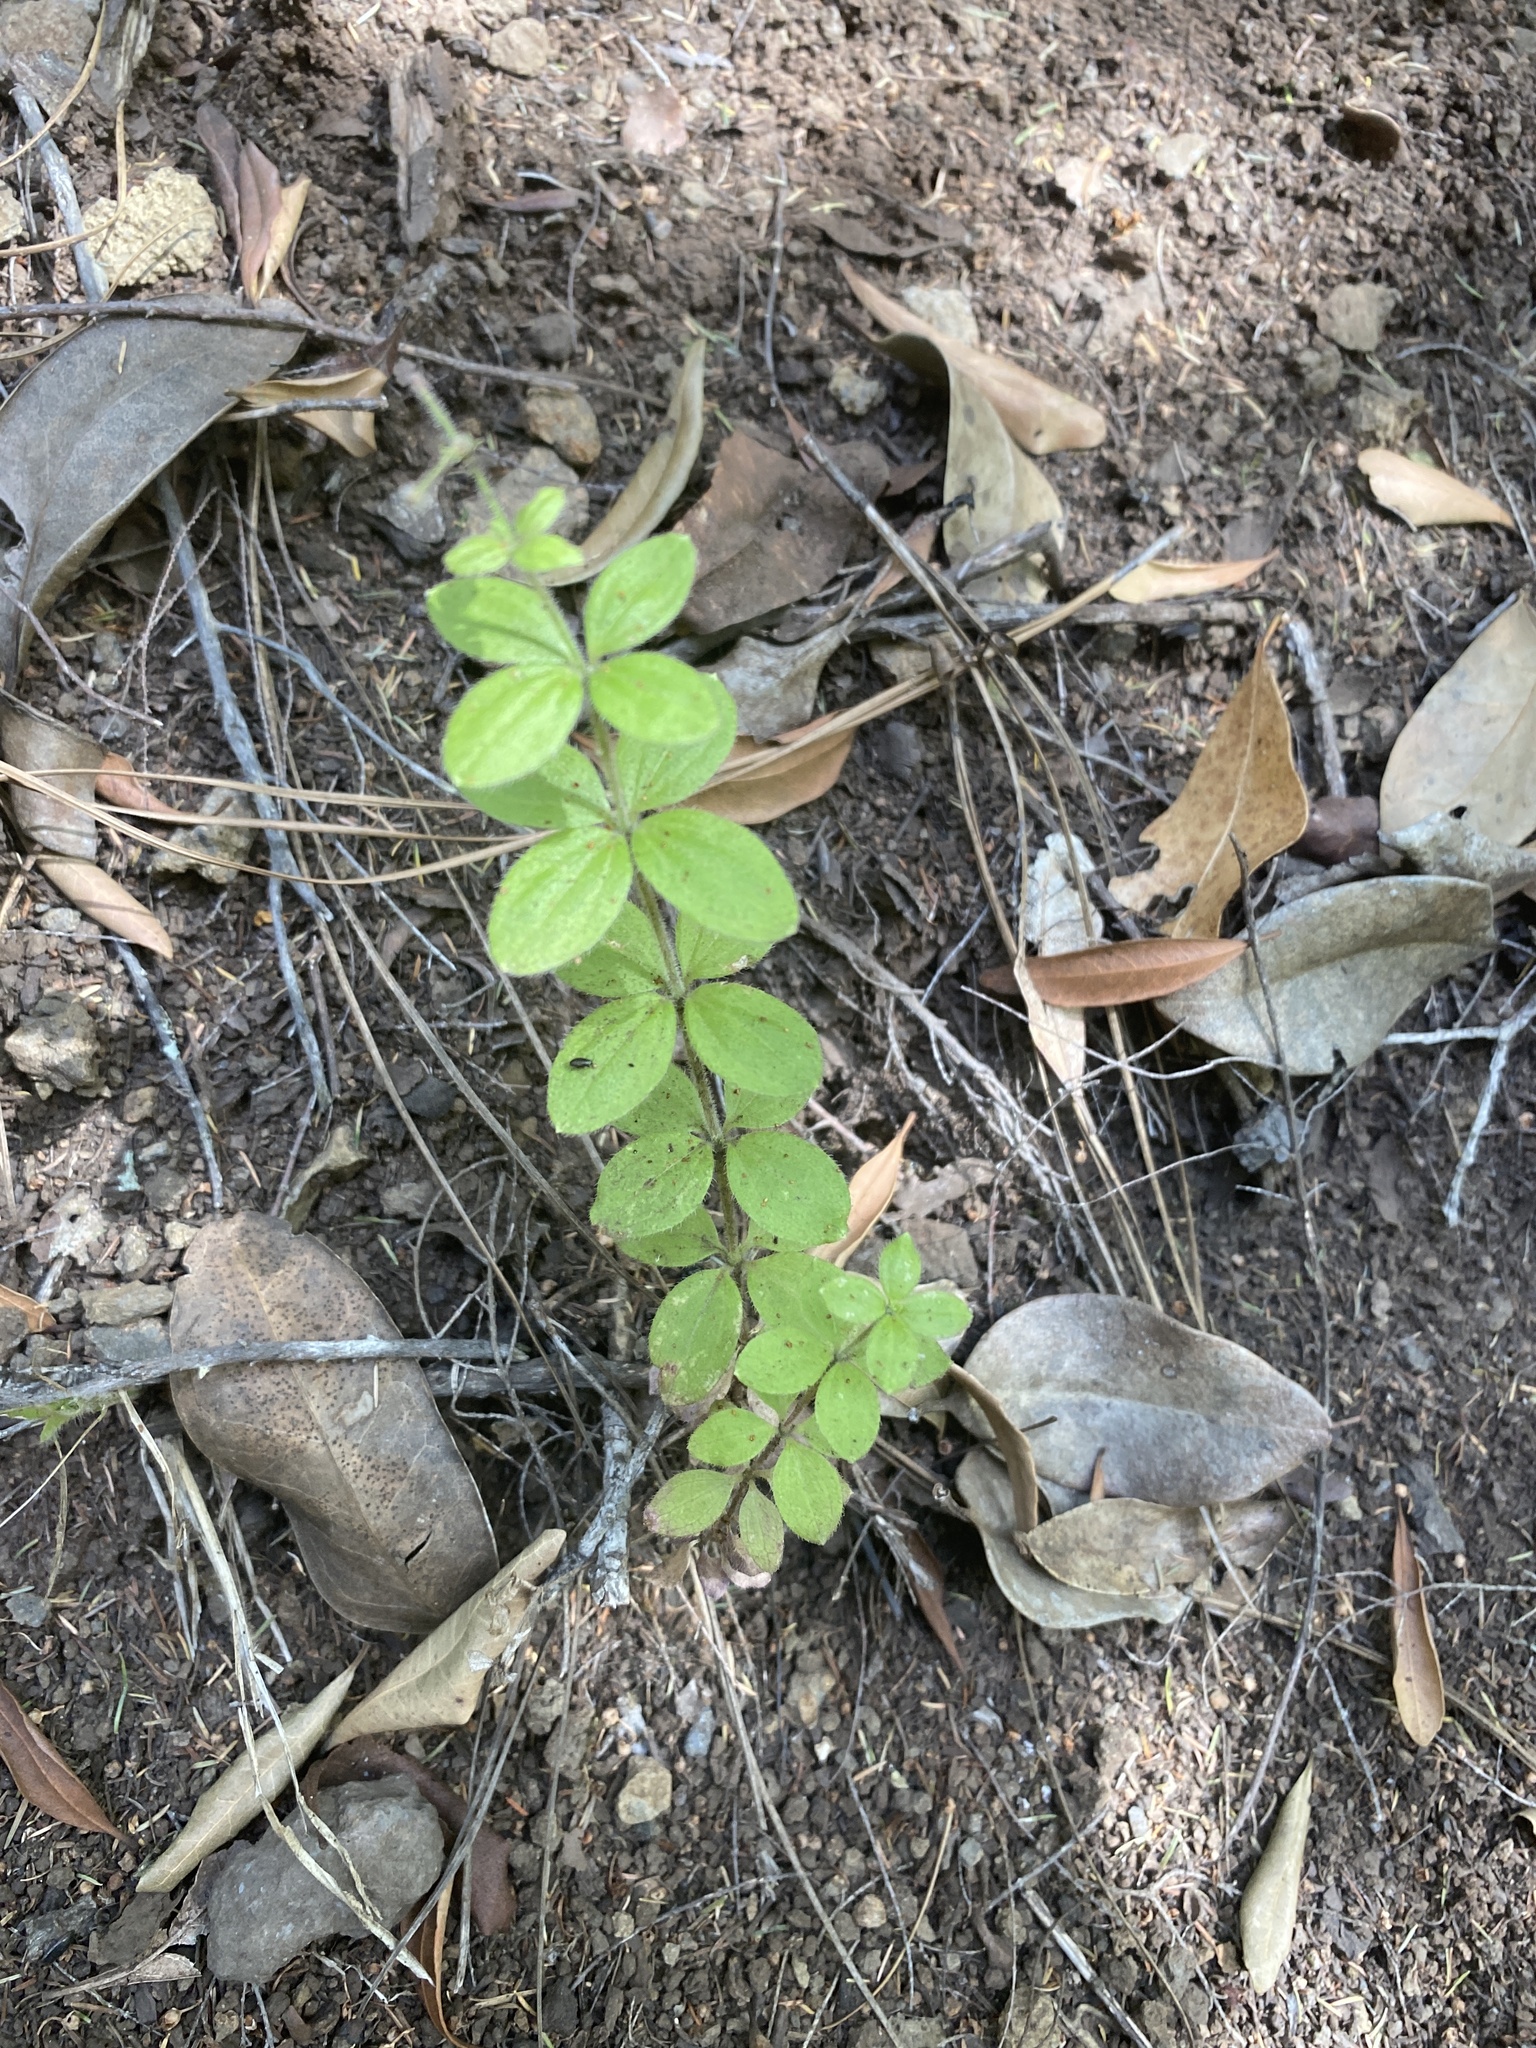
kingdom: Plantae
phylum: Tracheophyta
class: Magnoliopsida
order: Gentianales
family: Rubiaceae
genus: Galium
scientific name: Galium scabrum
